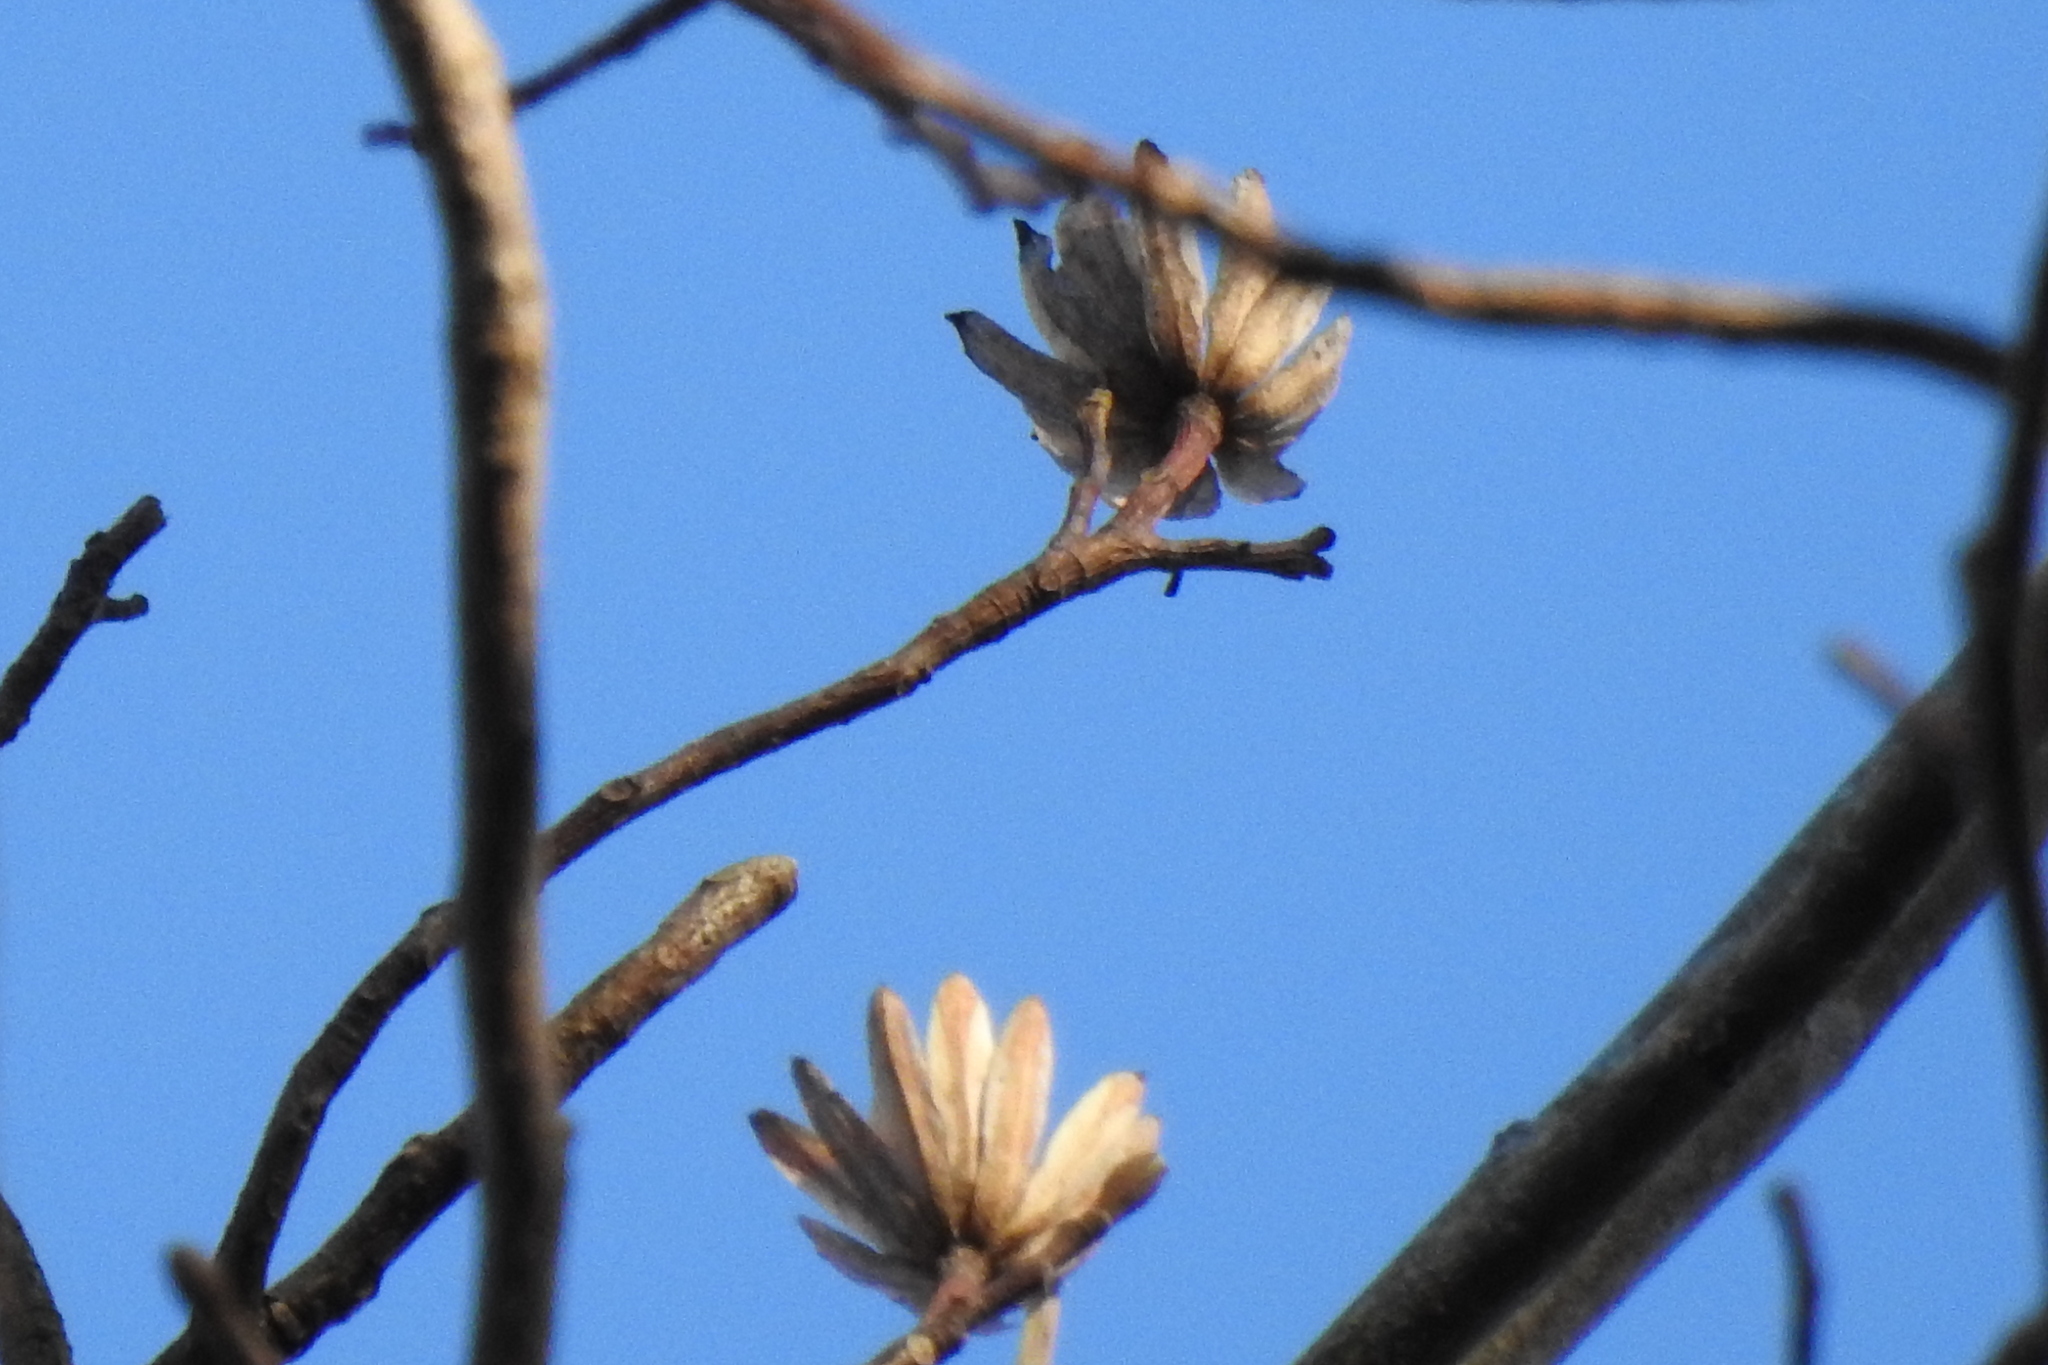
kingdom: Plantae
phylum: Tracheophyta
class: Magnoliopsida
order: Magnoliales
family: Magnoliaceae
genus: Liriodendron
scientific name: Liriodendron tulipifera
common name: Tulip tree
